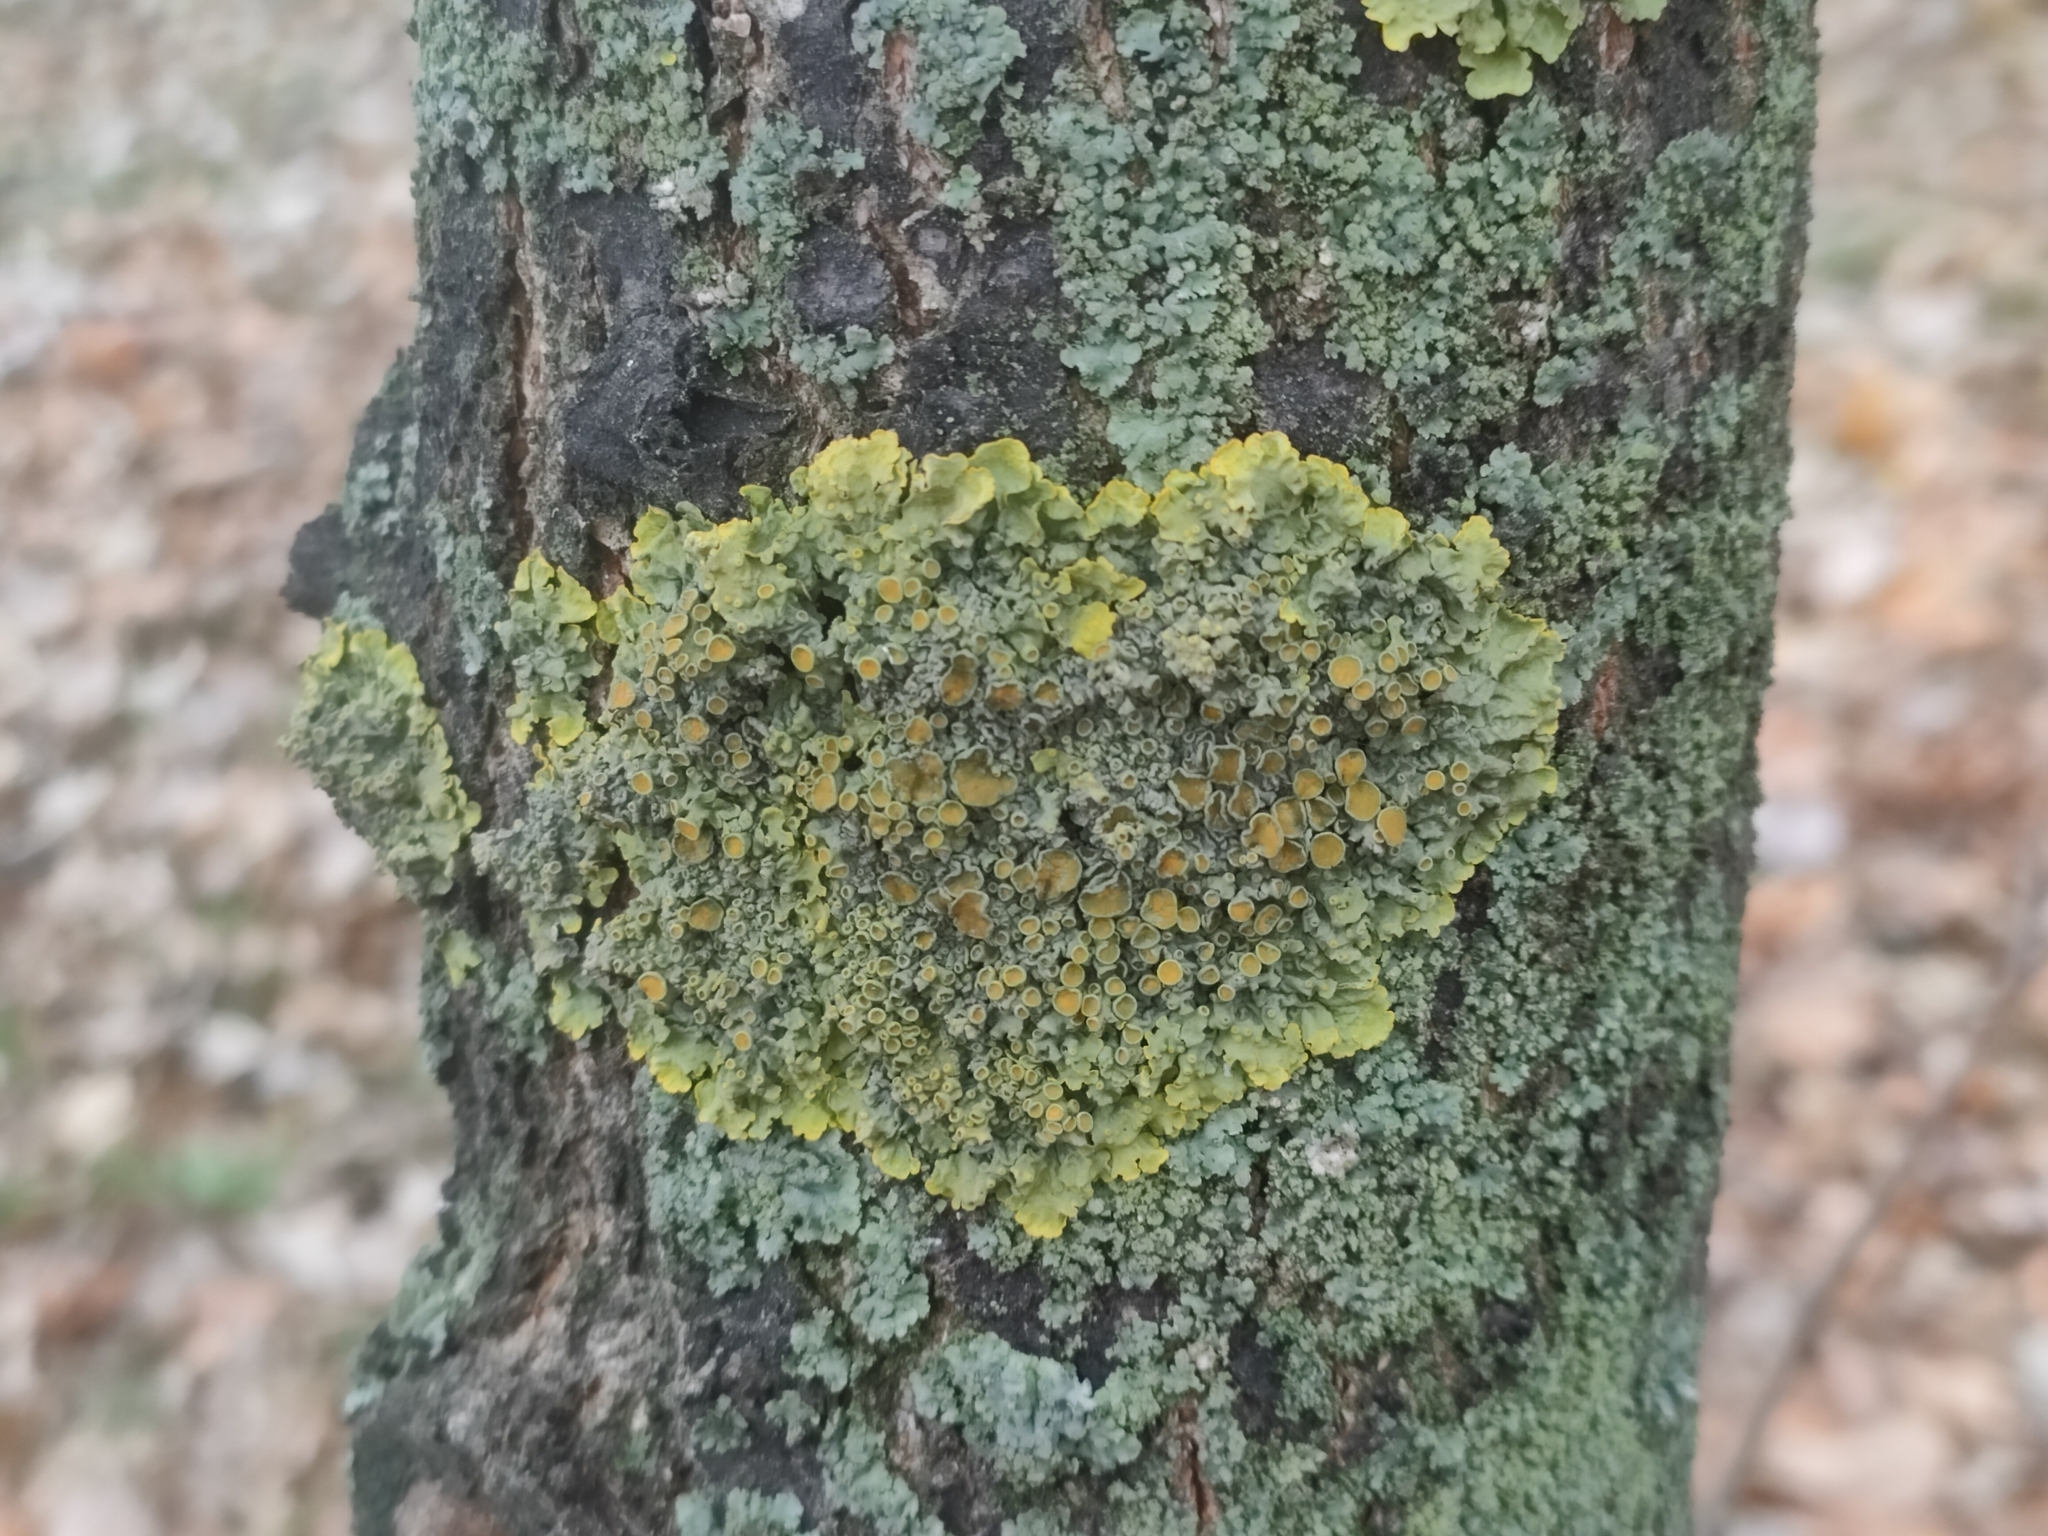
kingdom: Fungi
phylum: Ascomycota
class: Lecanoromycetes
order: Teloschistales
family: Teloschistaceae
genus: Xanthoria
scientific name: Xanthoria parietina
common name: Common orange lichen
